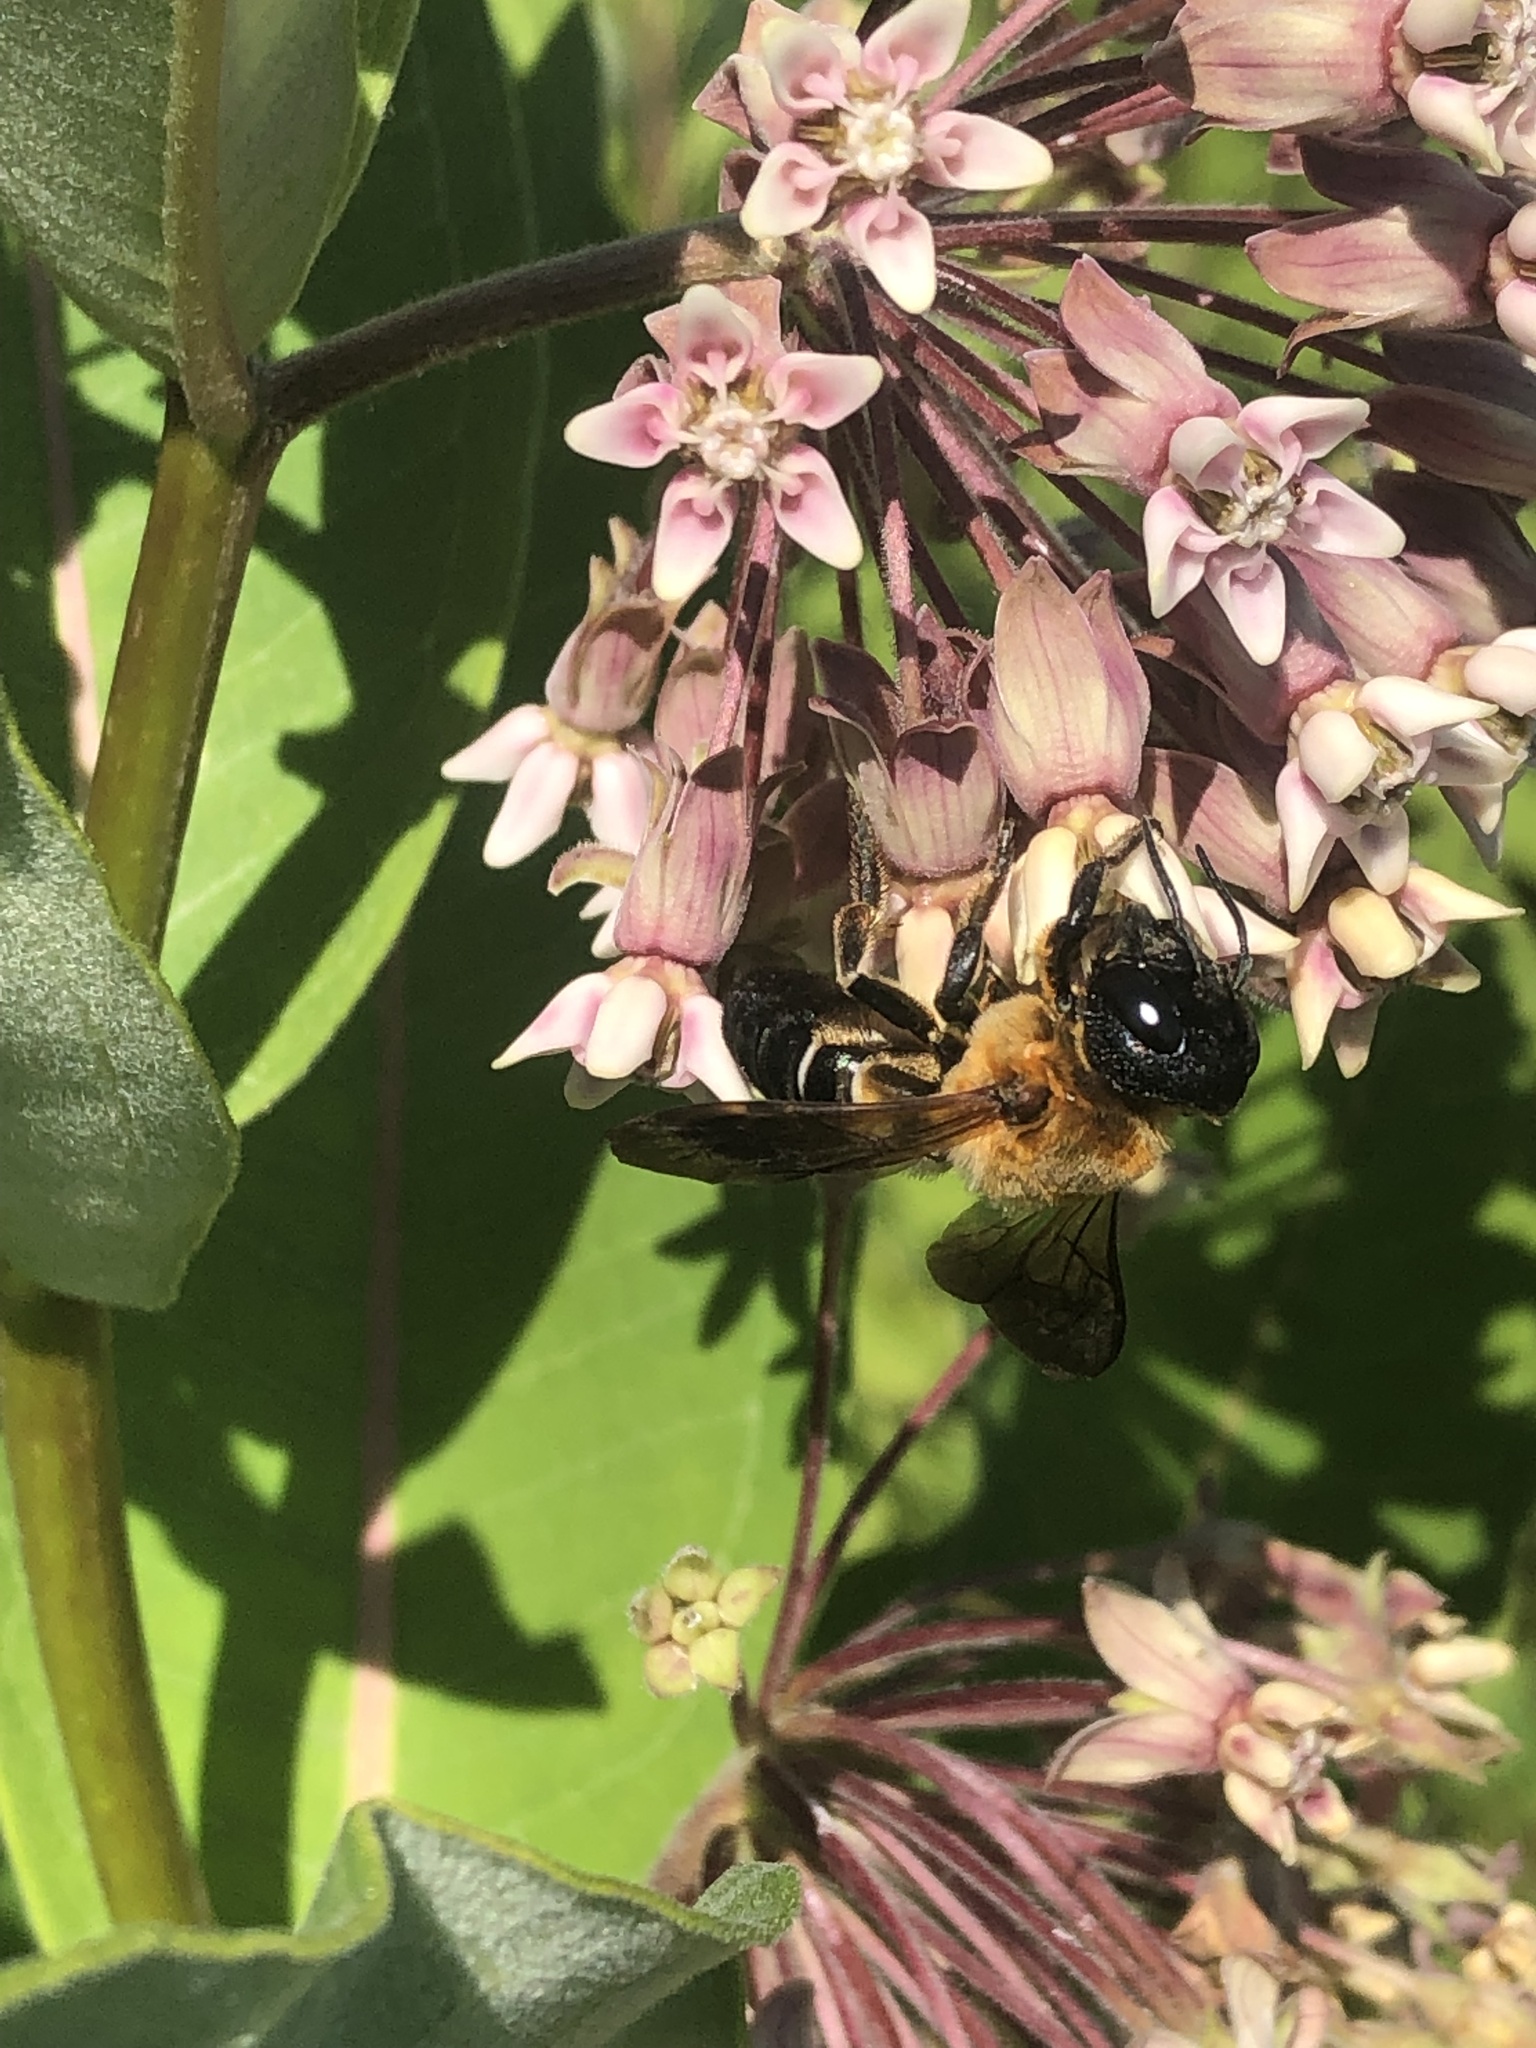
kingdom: Animalia
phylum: Arthropoda
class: Insecta
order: Hymenoptera
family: Megachilidae
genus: Megachile
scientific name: Megachile sculpturalis
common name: Sculptured resin bee
